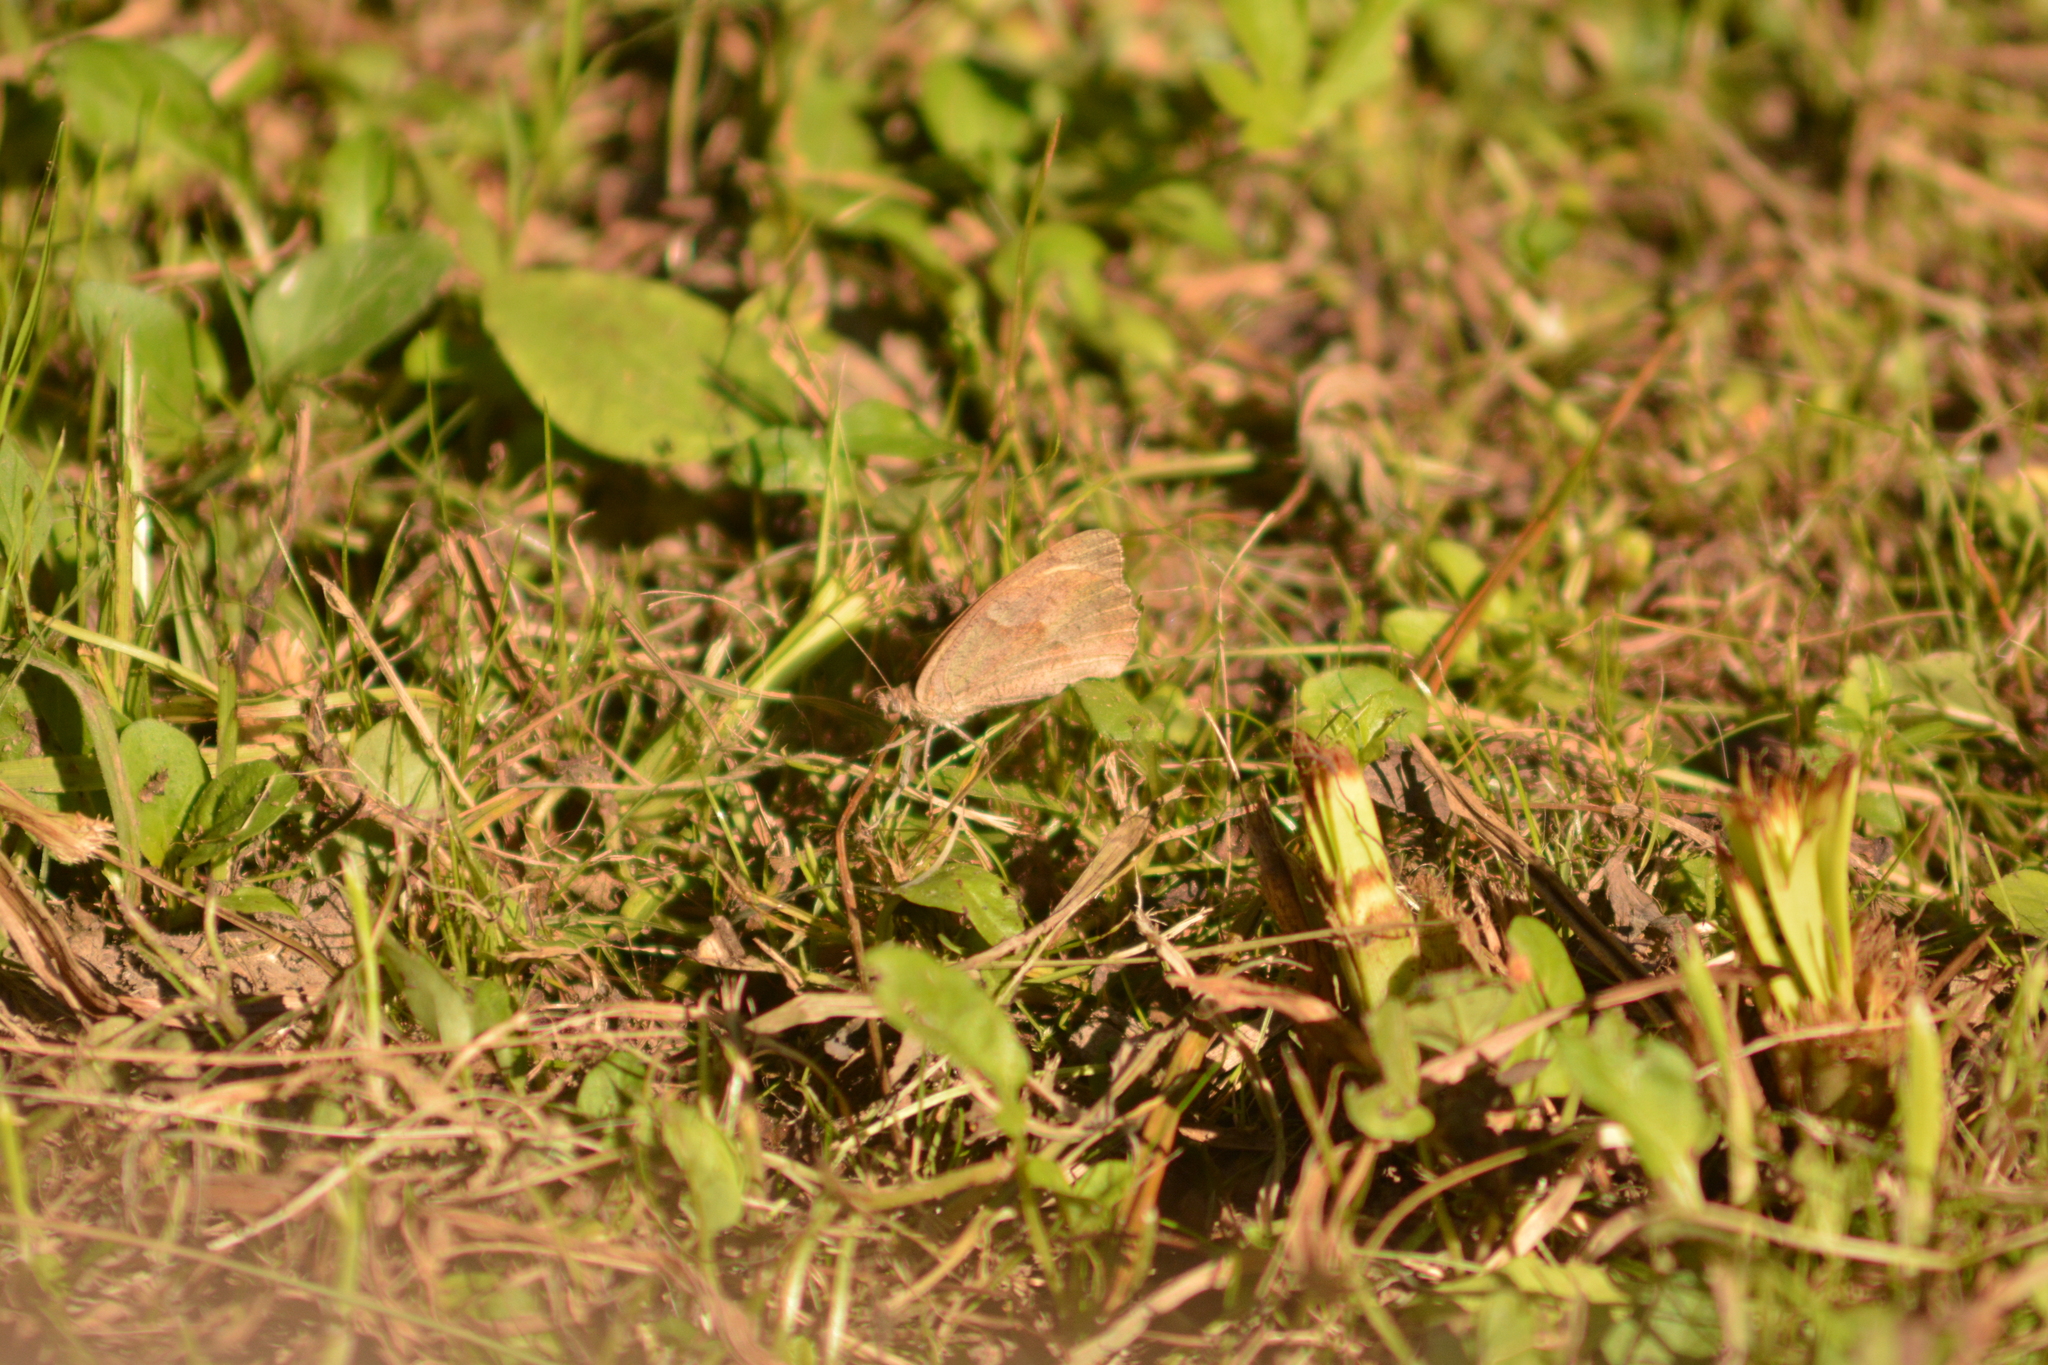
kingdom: Animalia
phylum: Arthropoda
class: Insecta
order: Lepidoptera
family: Nymphalidae
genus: Maniola
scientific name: Maniola jurtina
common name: Meadow brown
